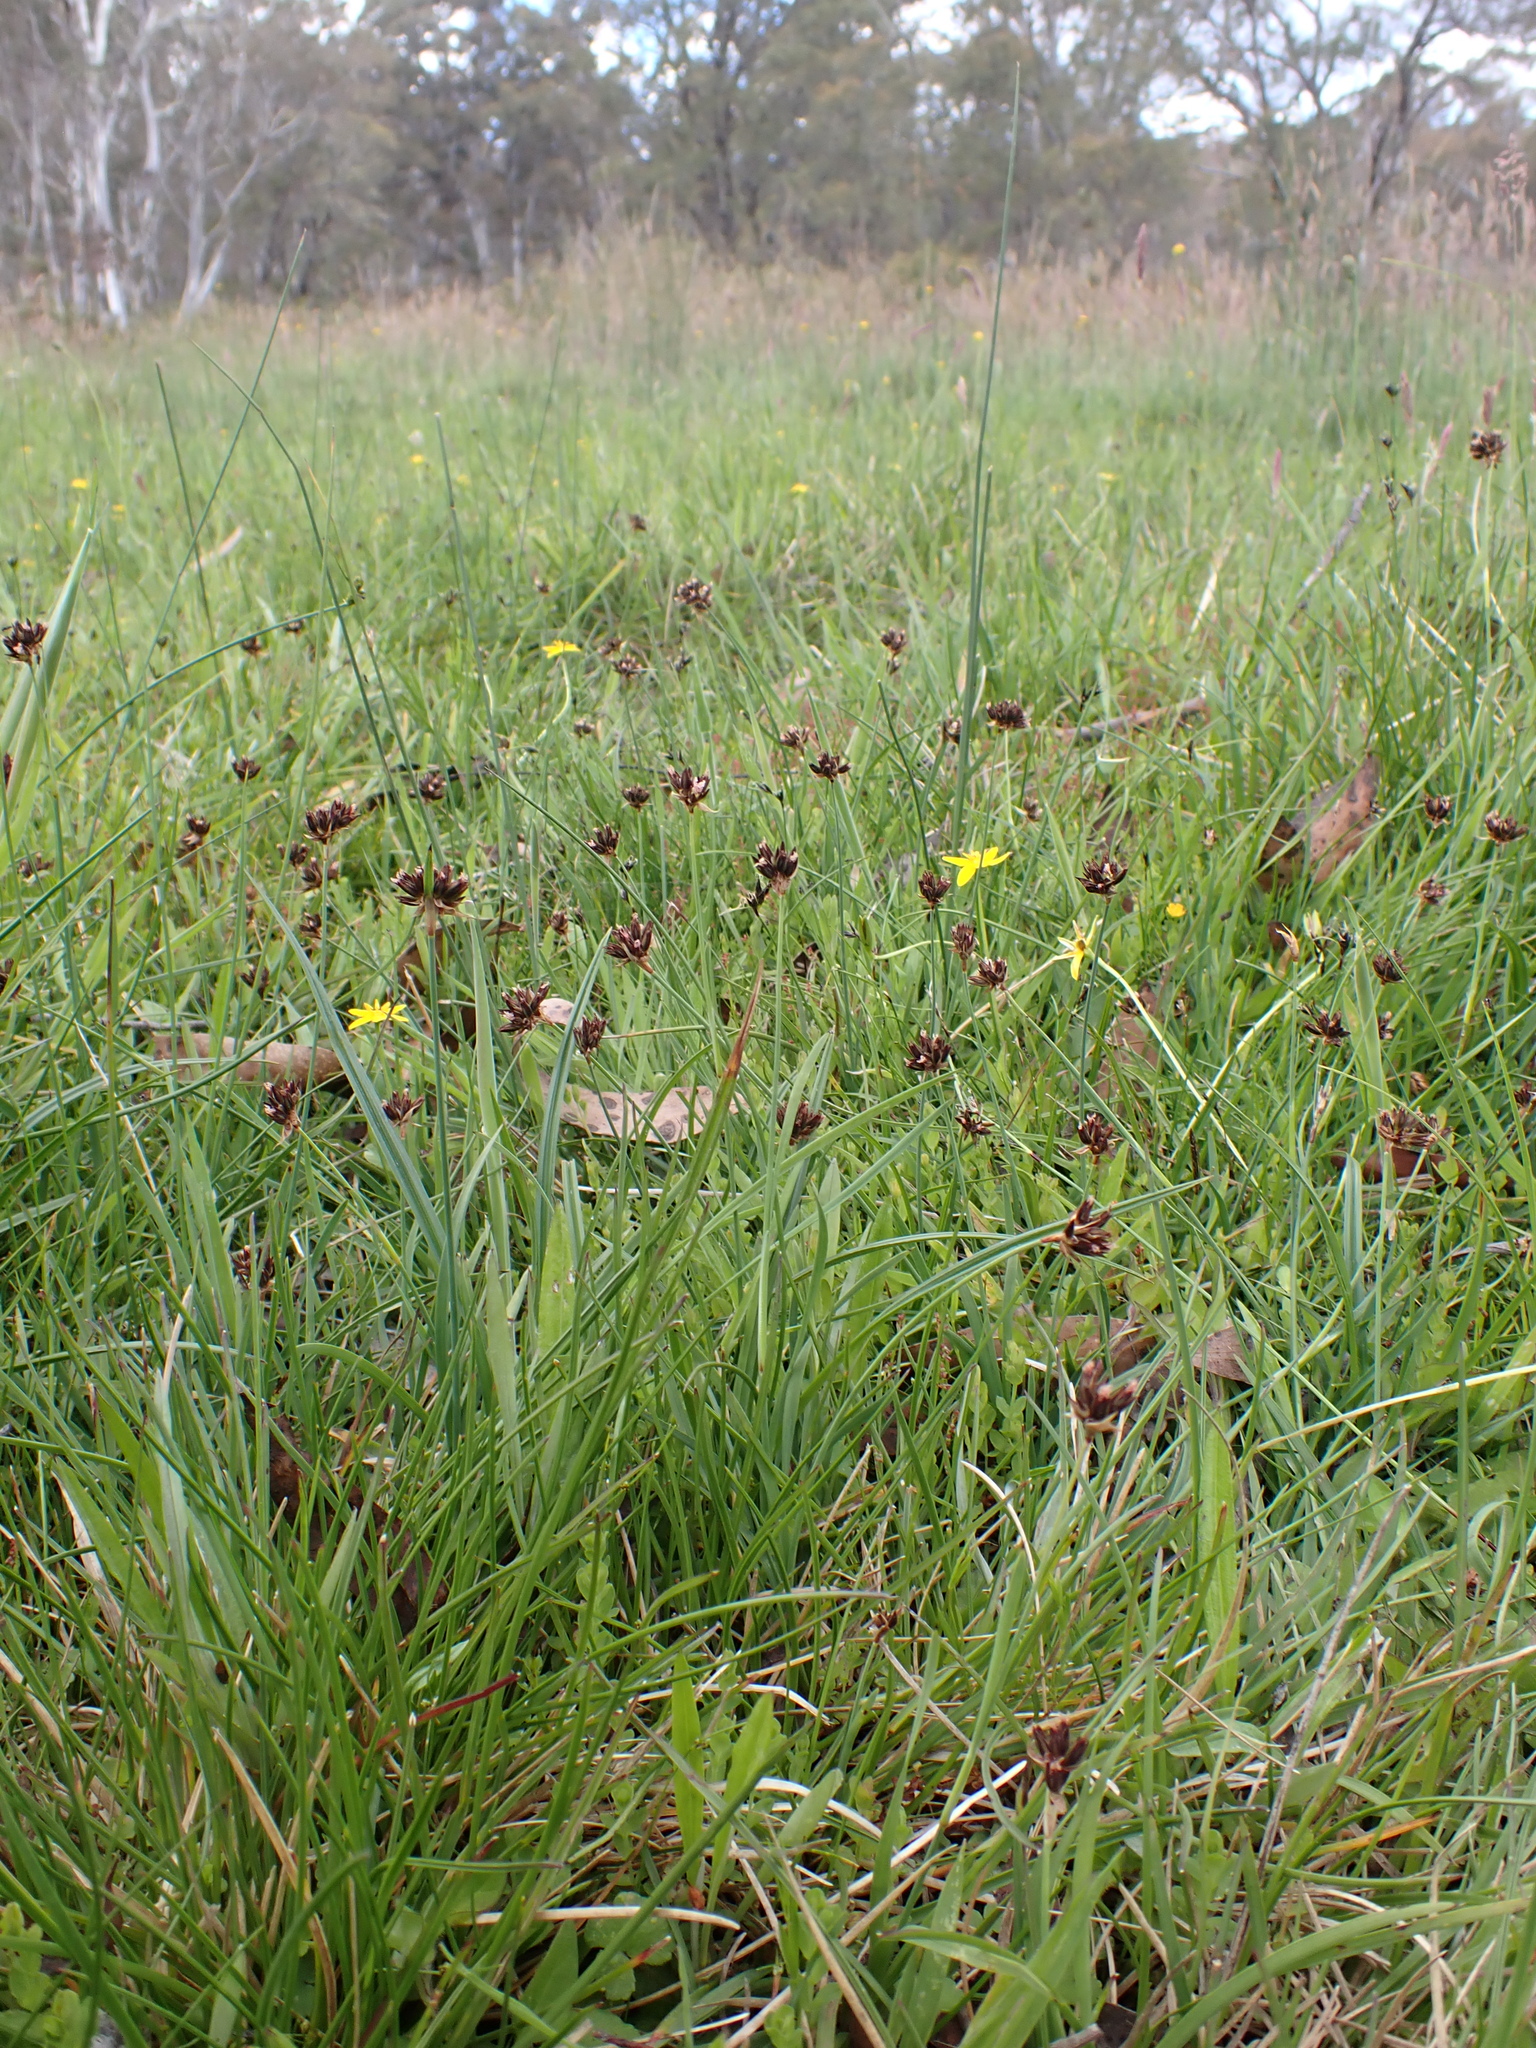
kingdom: Plantae
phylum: Tracheophyta
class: Liliopsida
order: Poales
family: Juncaceae
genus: Juncus
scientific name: Juncus falcatus
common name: Sickle-leaf rush
